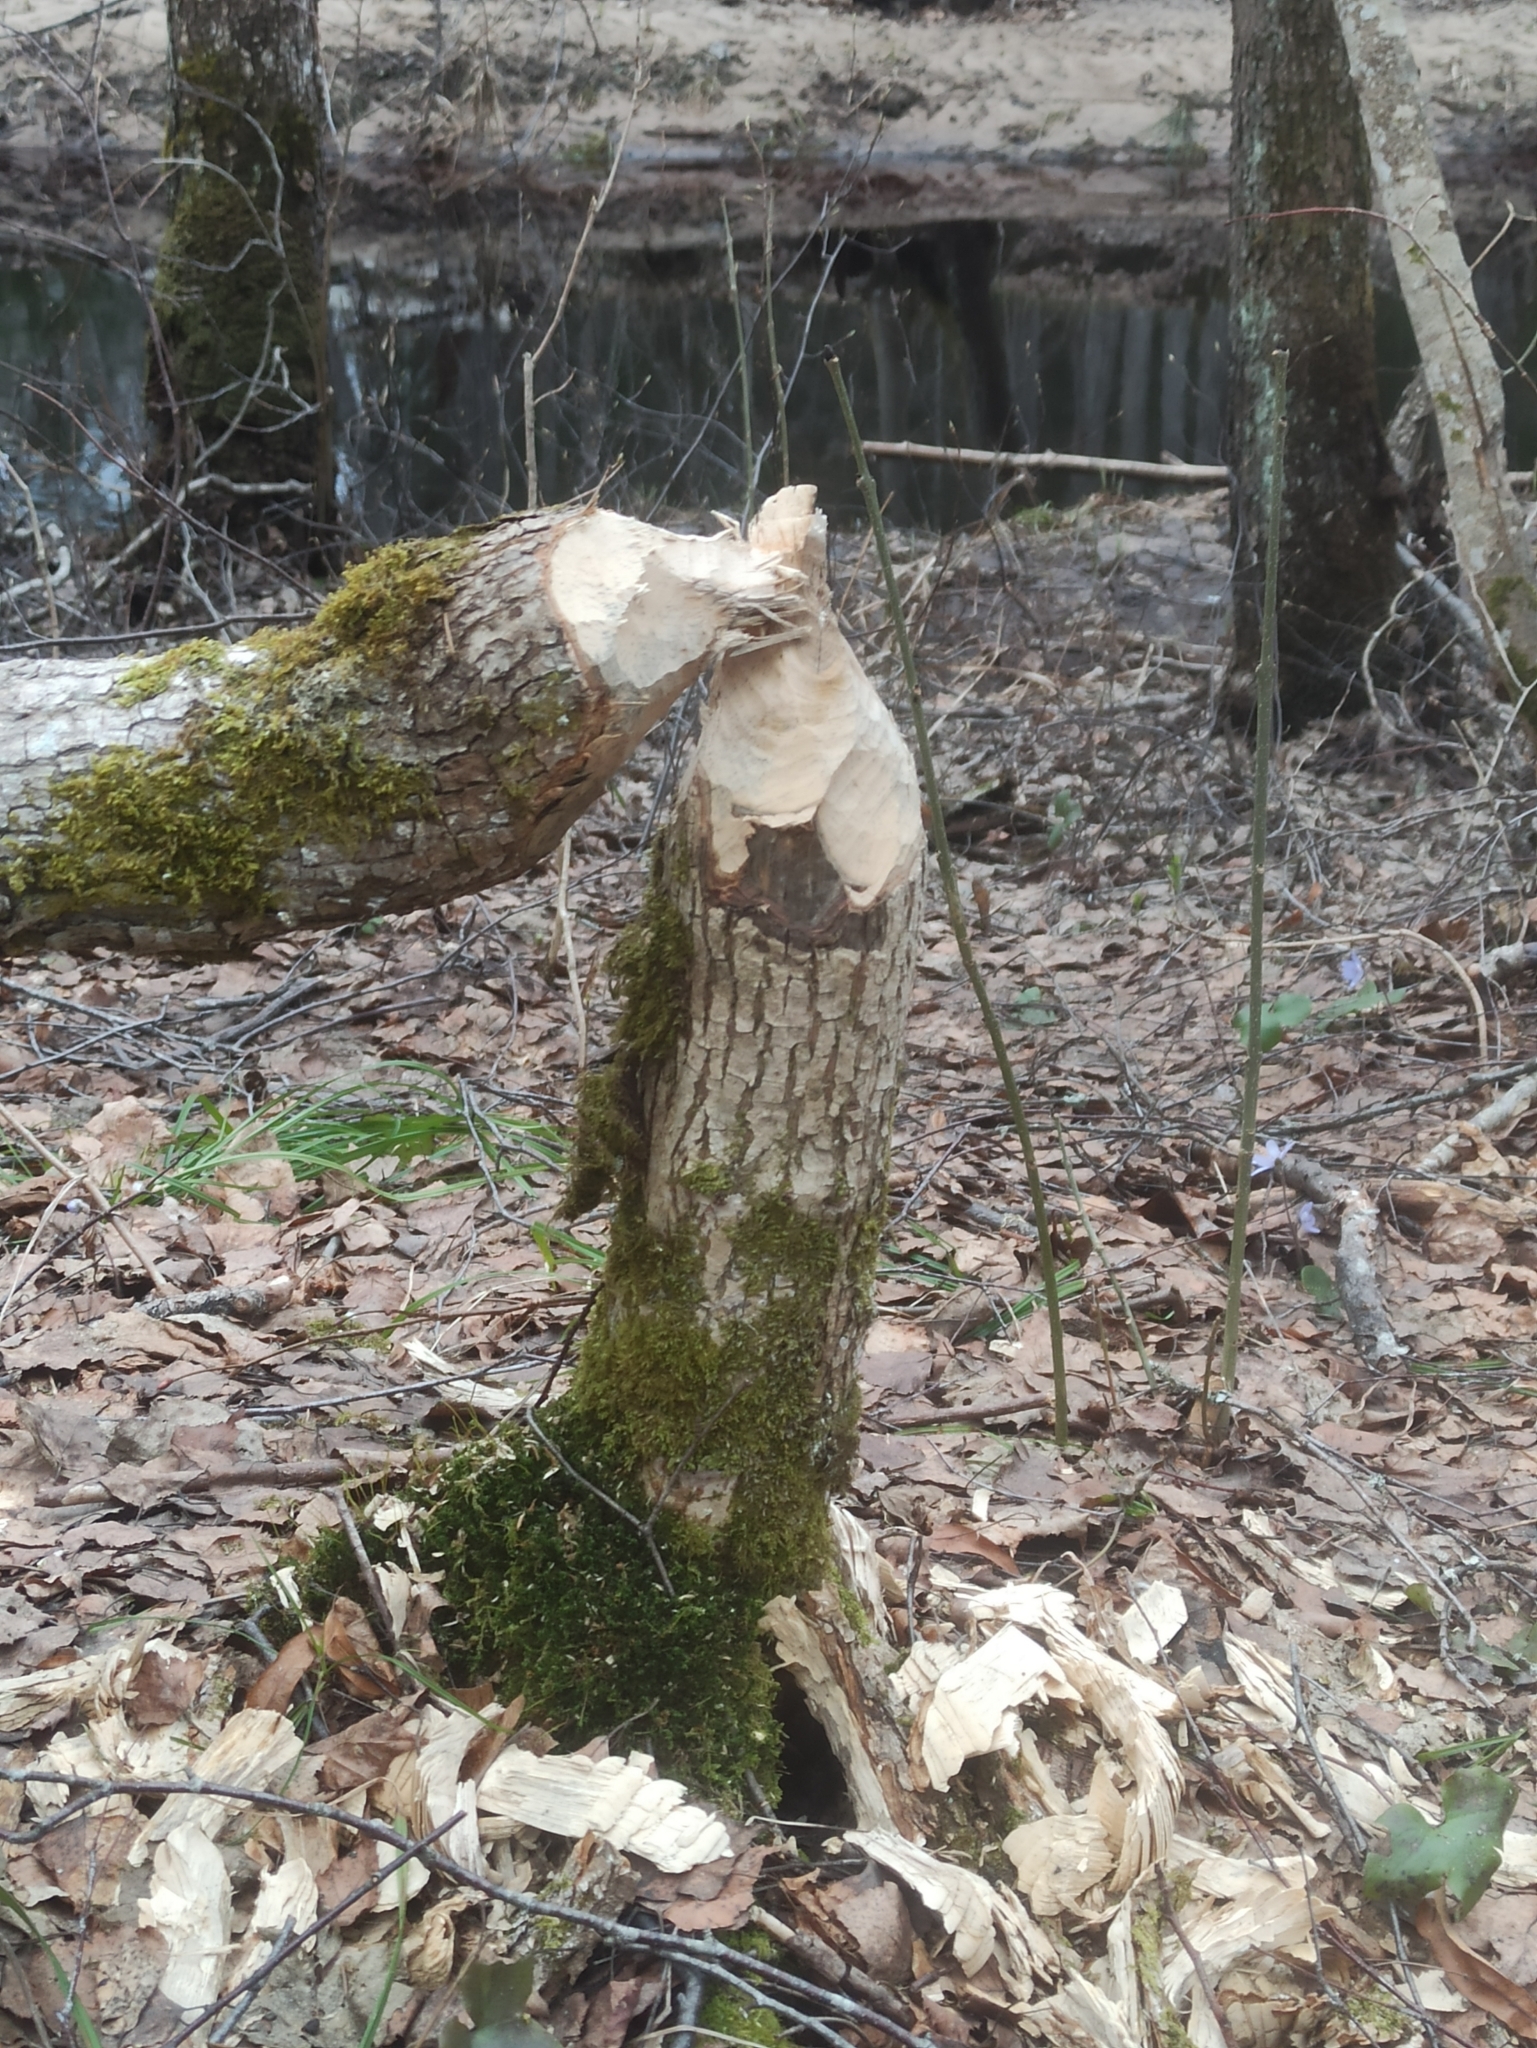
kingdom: Animalia
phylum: Chordata
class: Mammalia
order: Rodentia
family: Castoridae
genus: Castor
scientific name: Castor fiber
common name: Eurasian beaver
